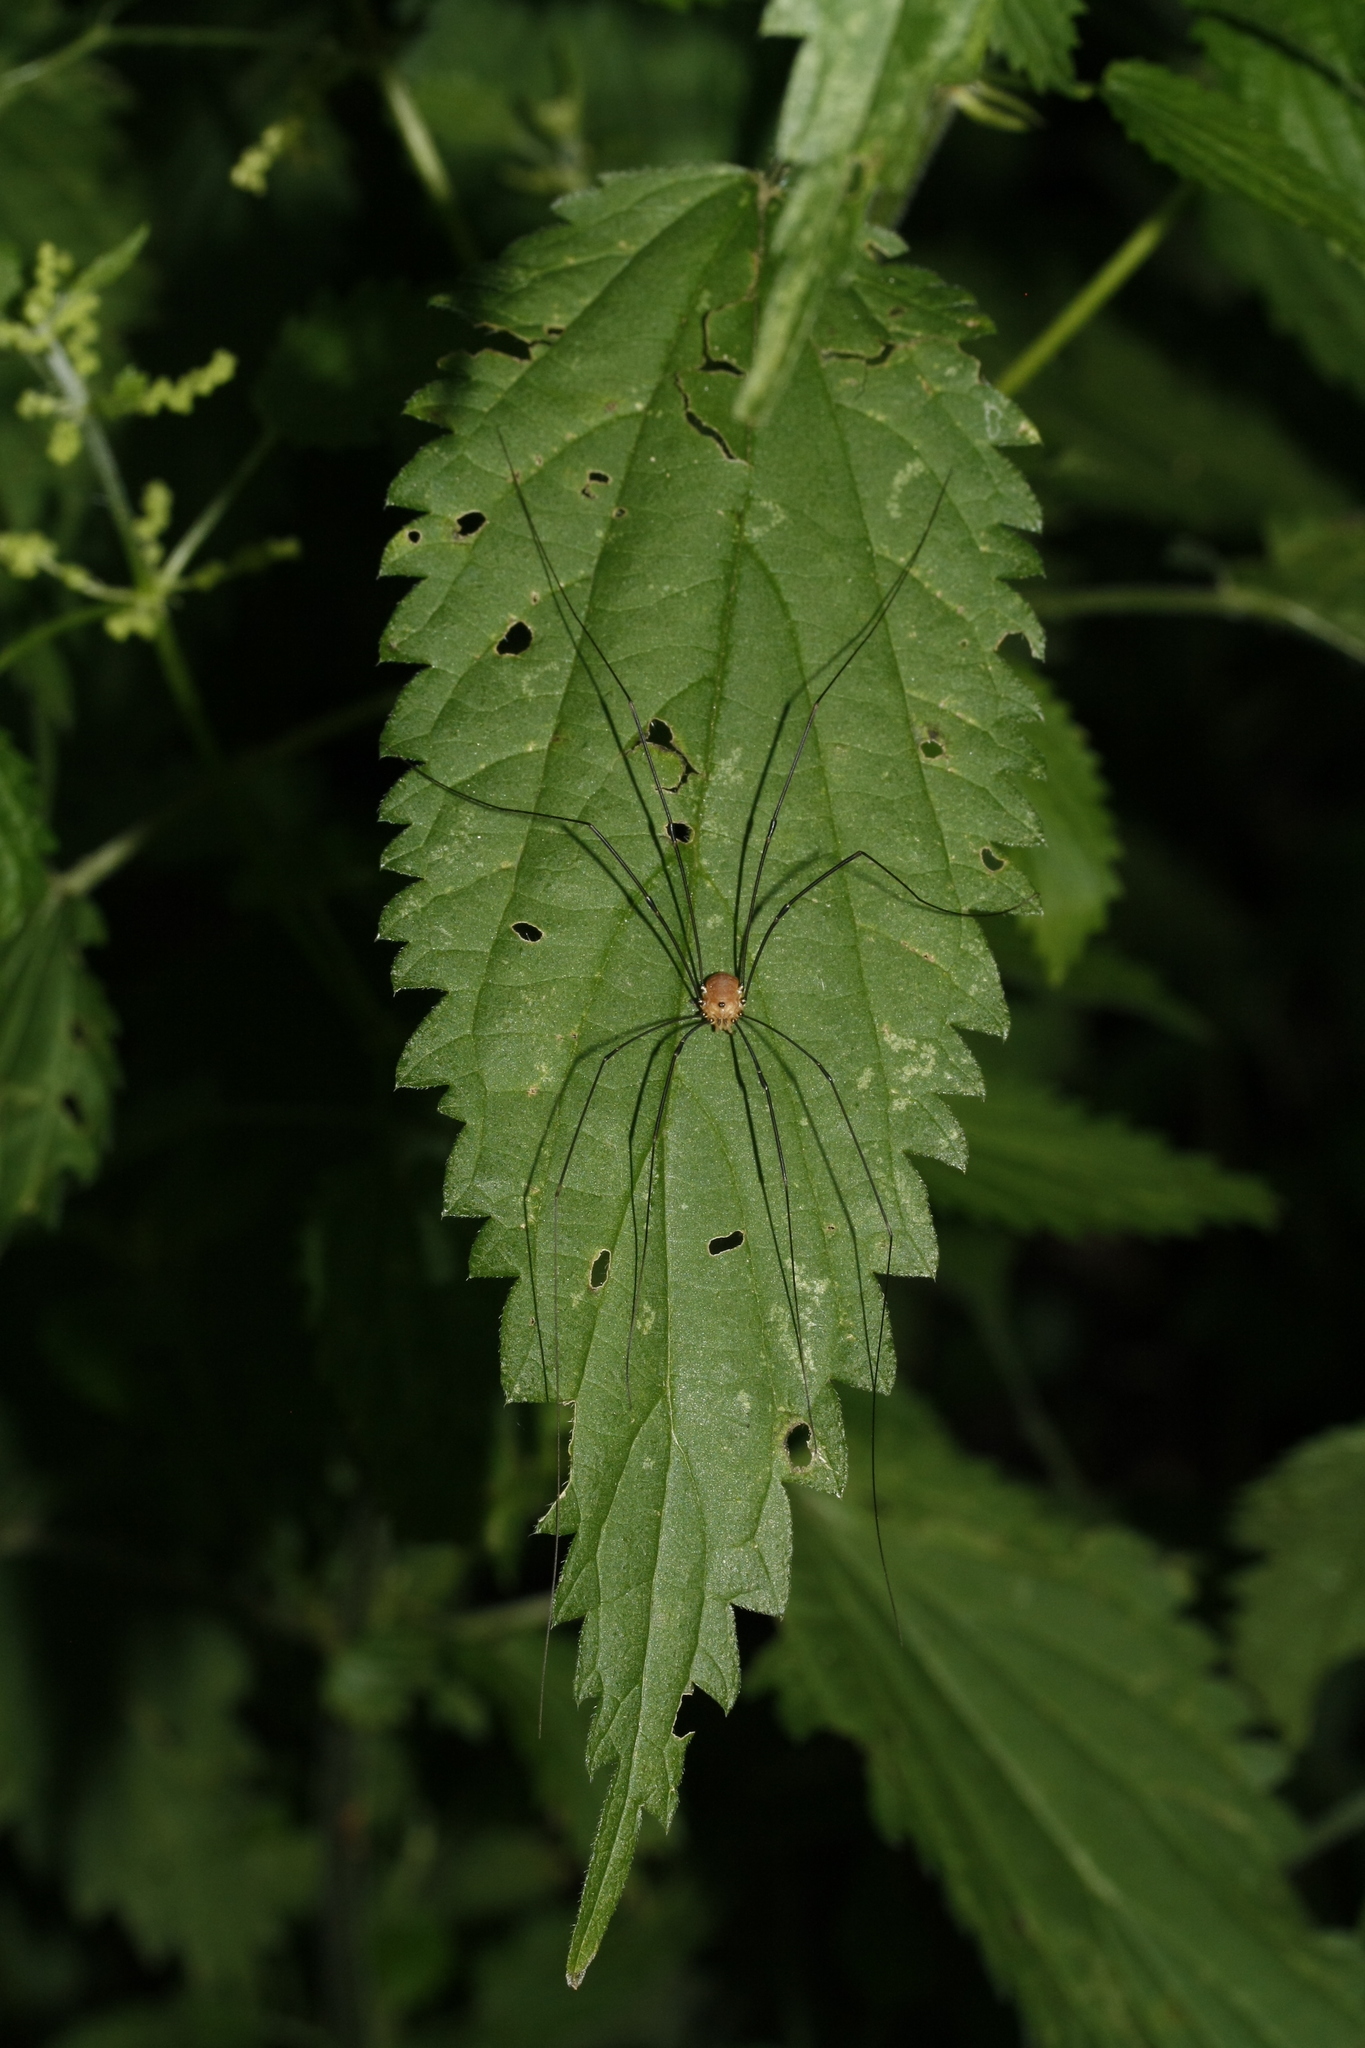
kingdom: Animalia
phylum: Arthropoda
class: Arachnida
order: Opiliones
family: Sclerosomatidae
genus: Leiobunum
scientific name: Leiobunum rotundum
